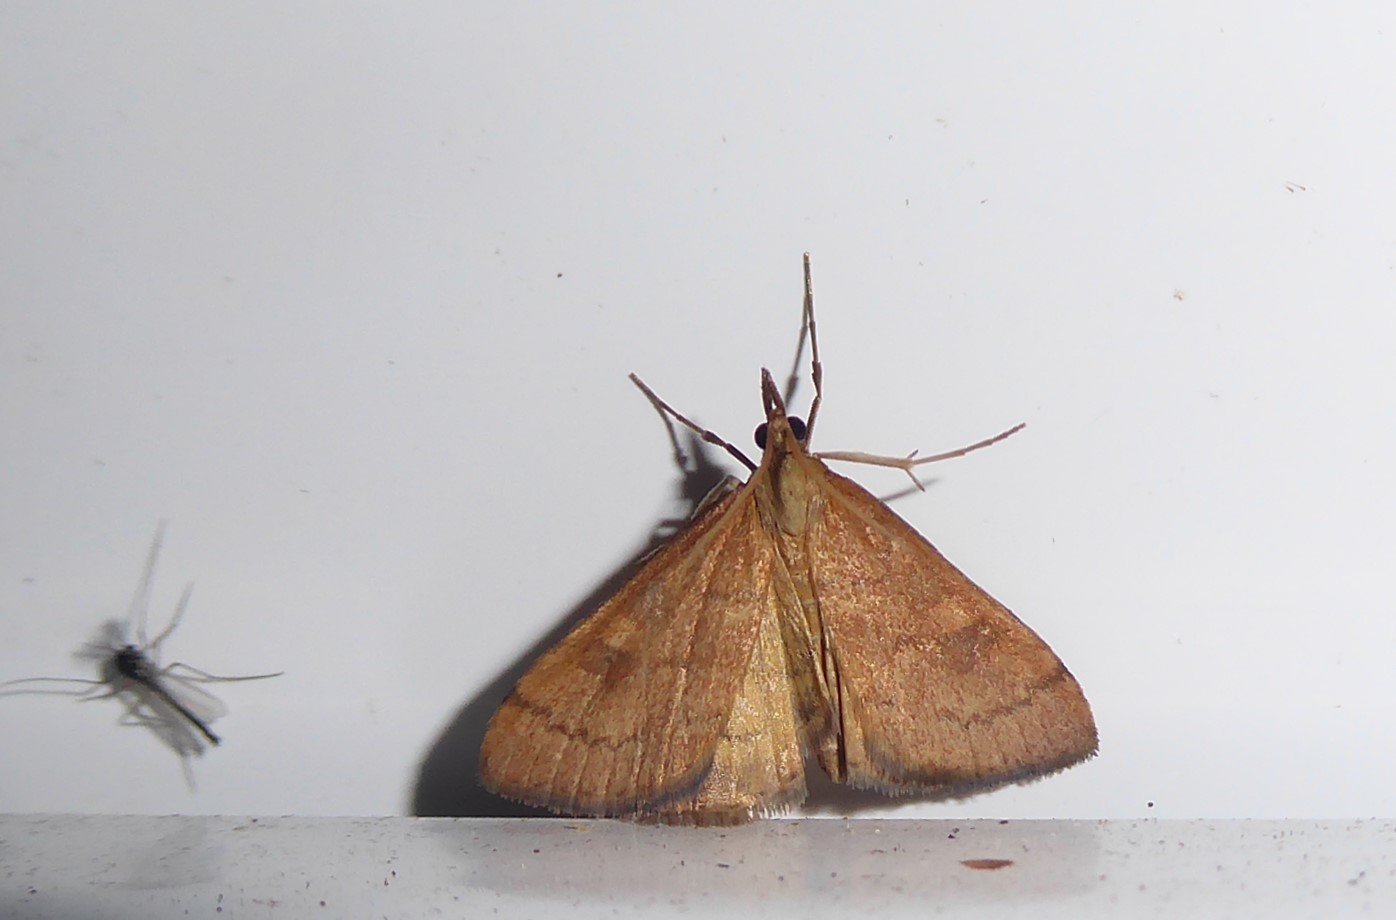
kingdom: Animalia
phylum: Arthropoda
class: Insecta
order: Lepidoptera
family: Crambidae
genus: Udea
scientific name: Udea Mnesictena flavidalis
